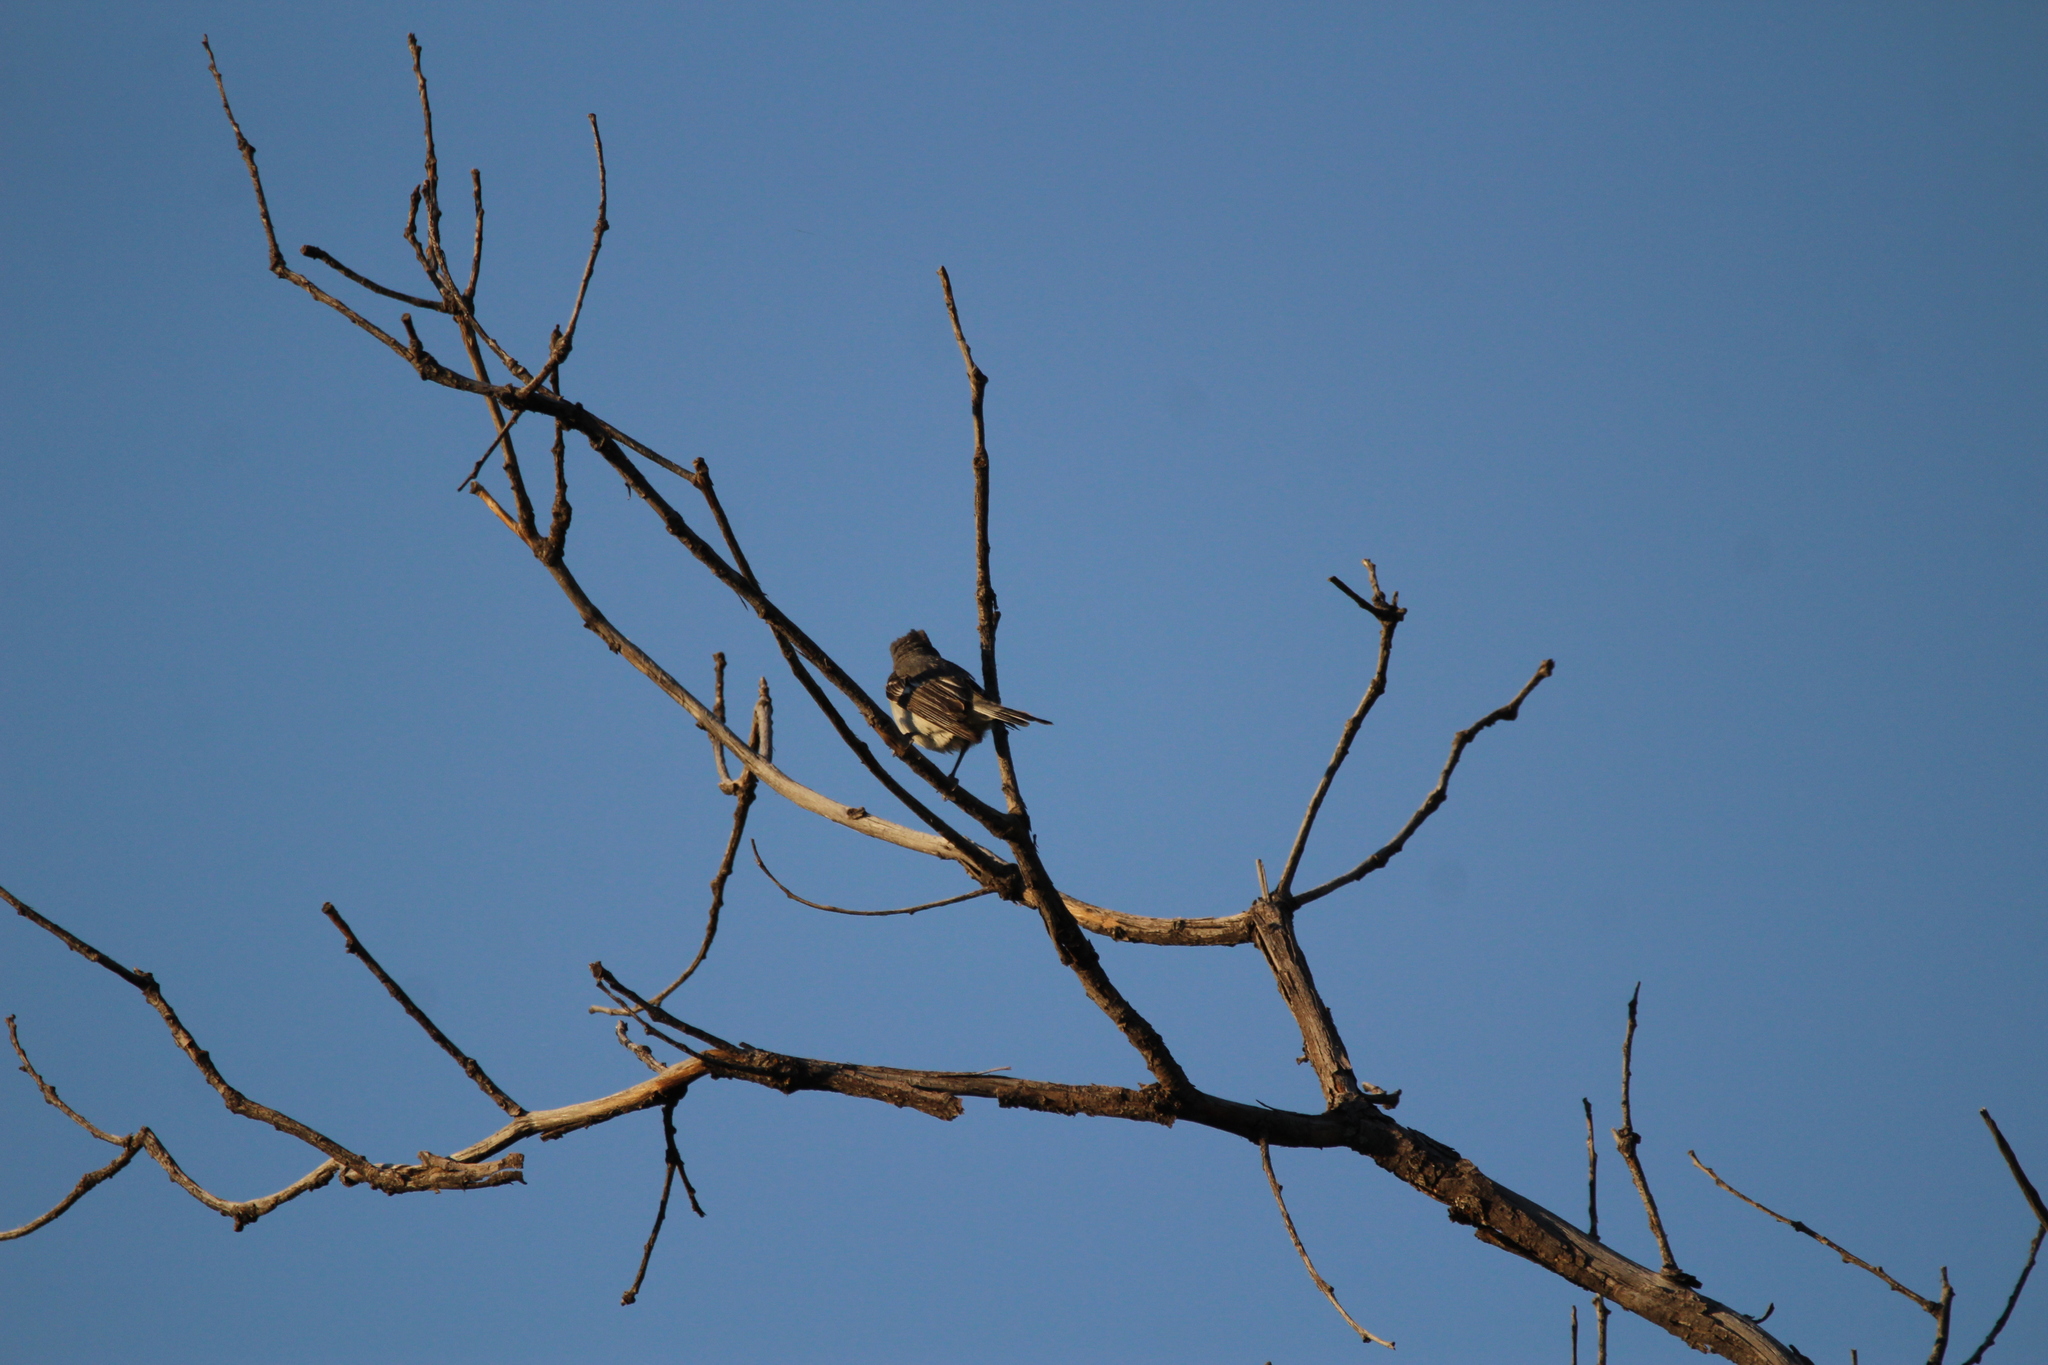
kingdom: Animalia
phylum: Chordata
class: Aves
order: Passeriformes
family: Vireonidae
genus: Vireo
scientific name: Vireo plumbeus
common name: Plumbeous vireo
